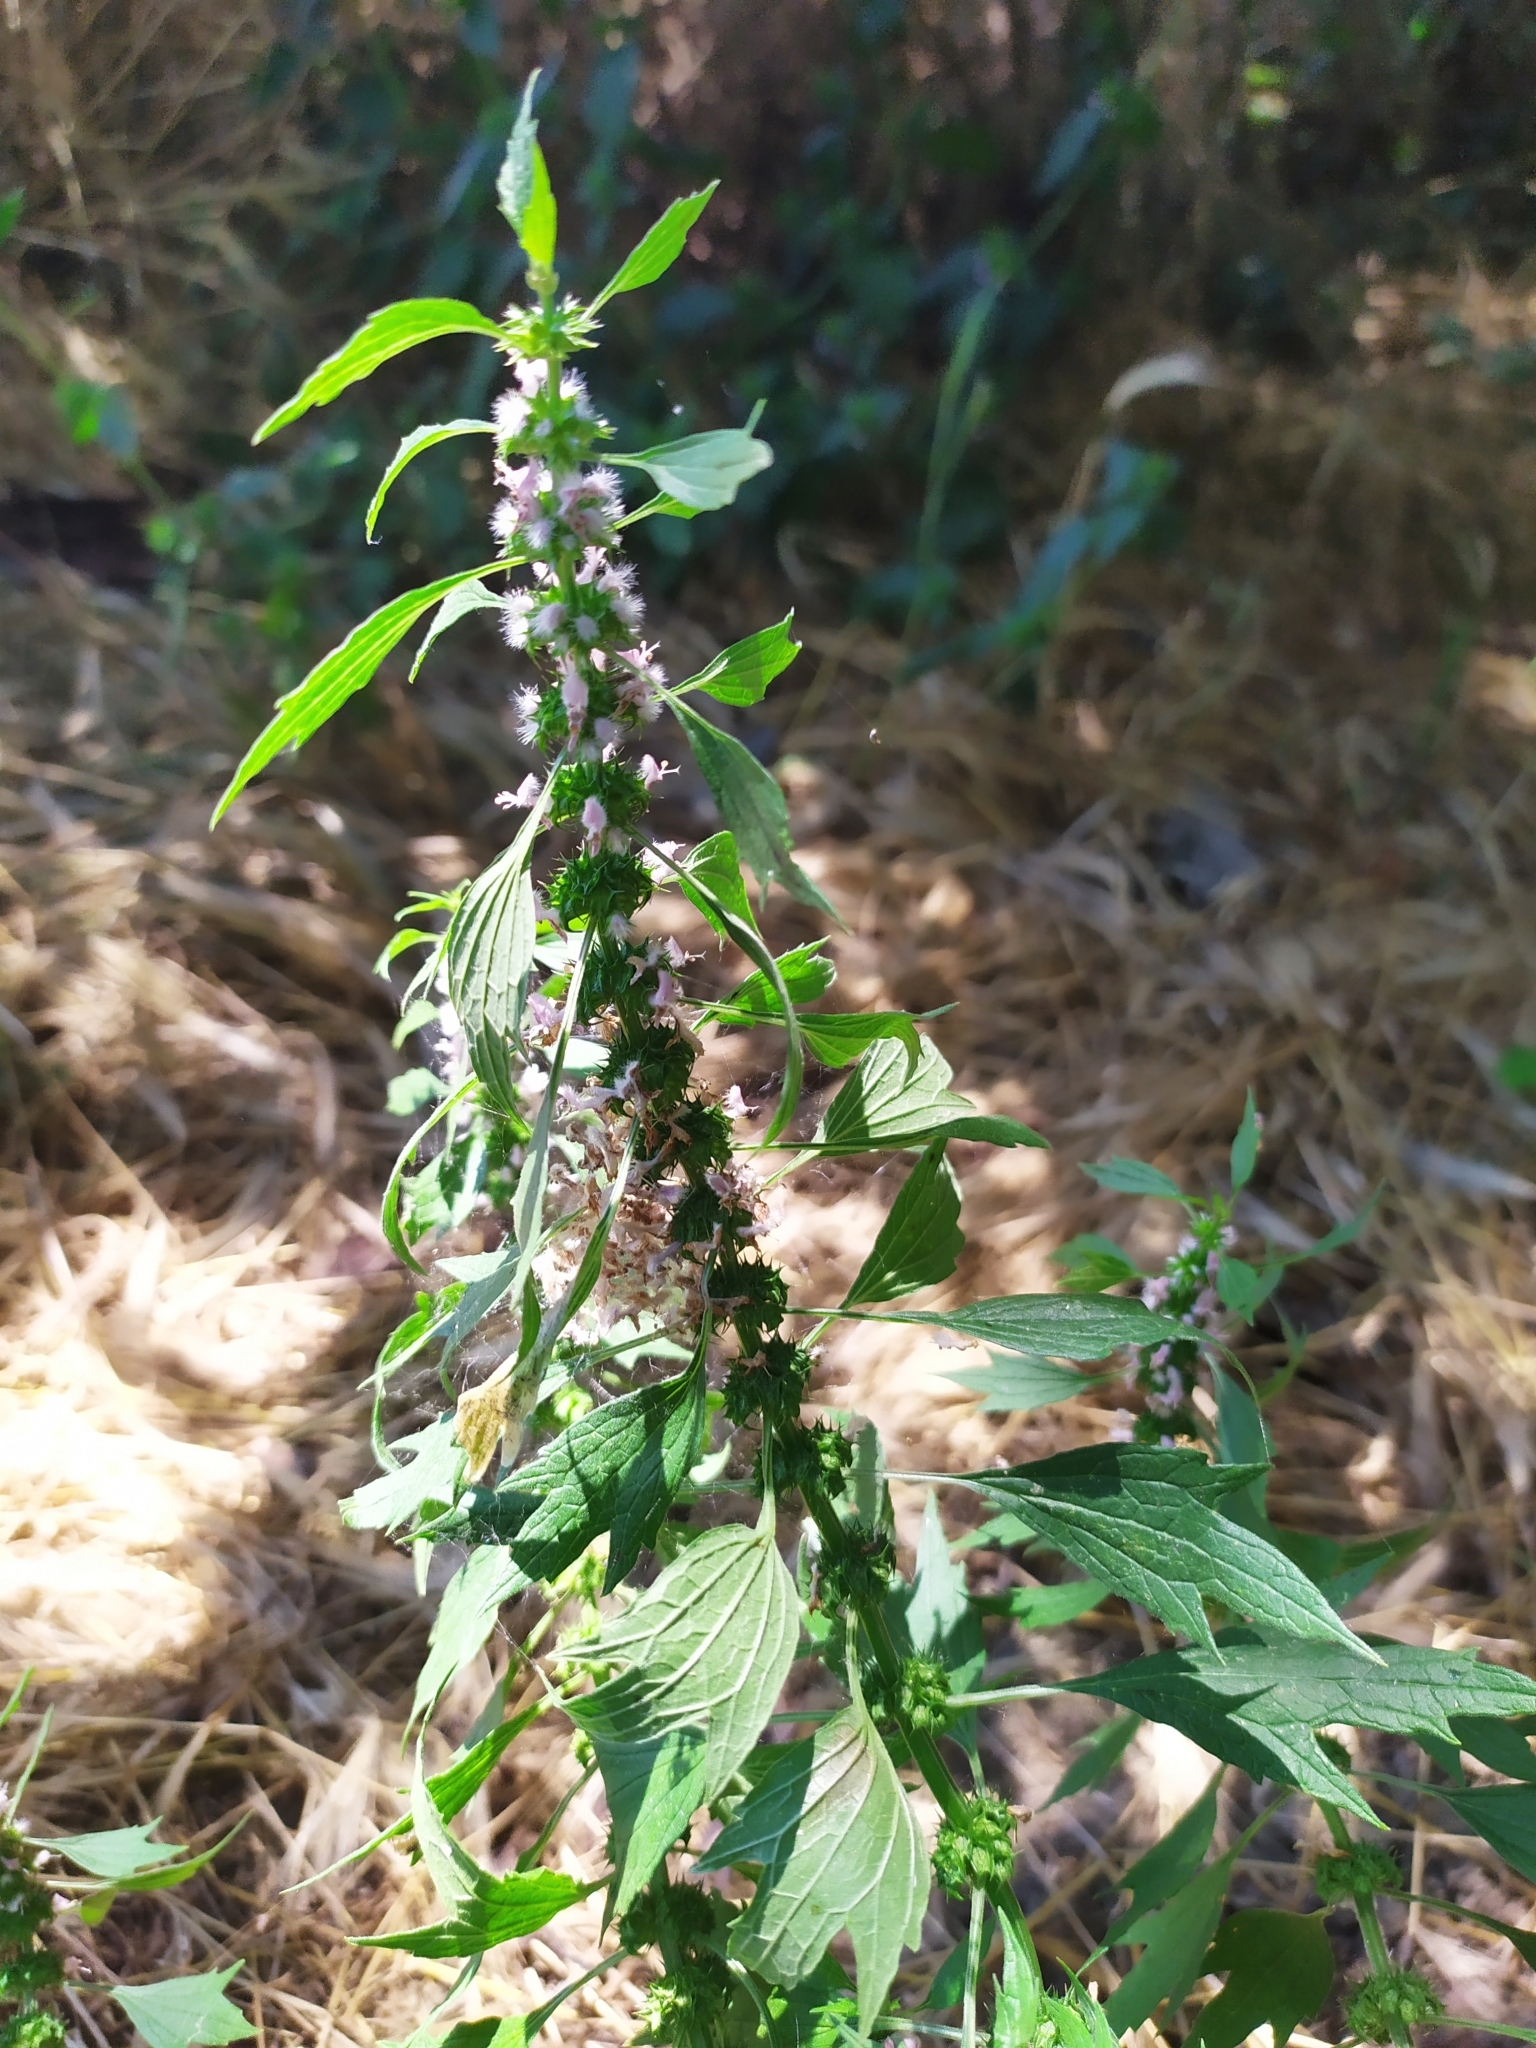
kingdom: Plantae
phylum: Tracheophyta
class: Magnoliopsida
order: Lamiales
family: Lamiaceae
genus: Leonurus
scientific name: Leonurus cardiaca
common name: Motherwort
